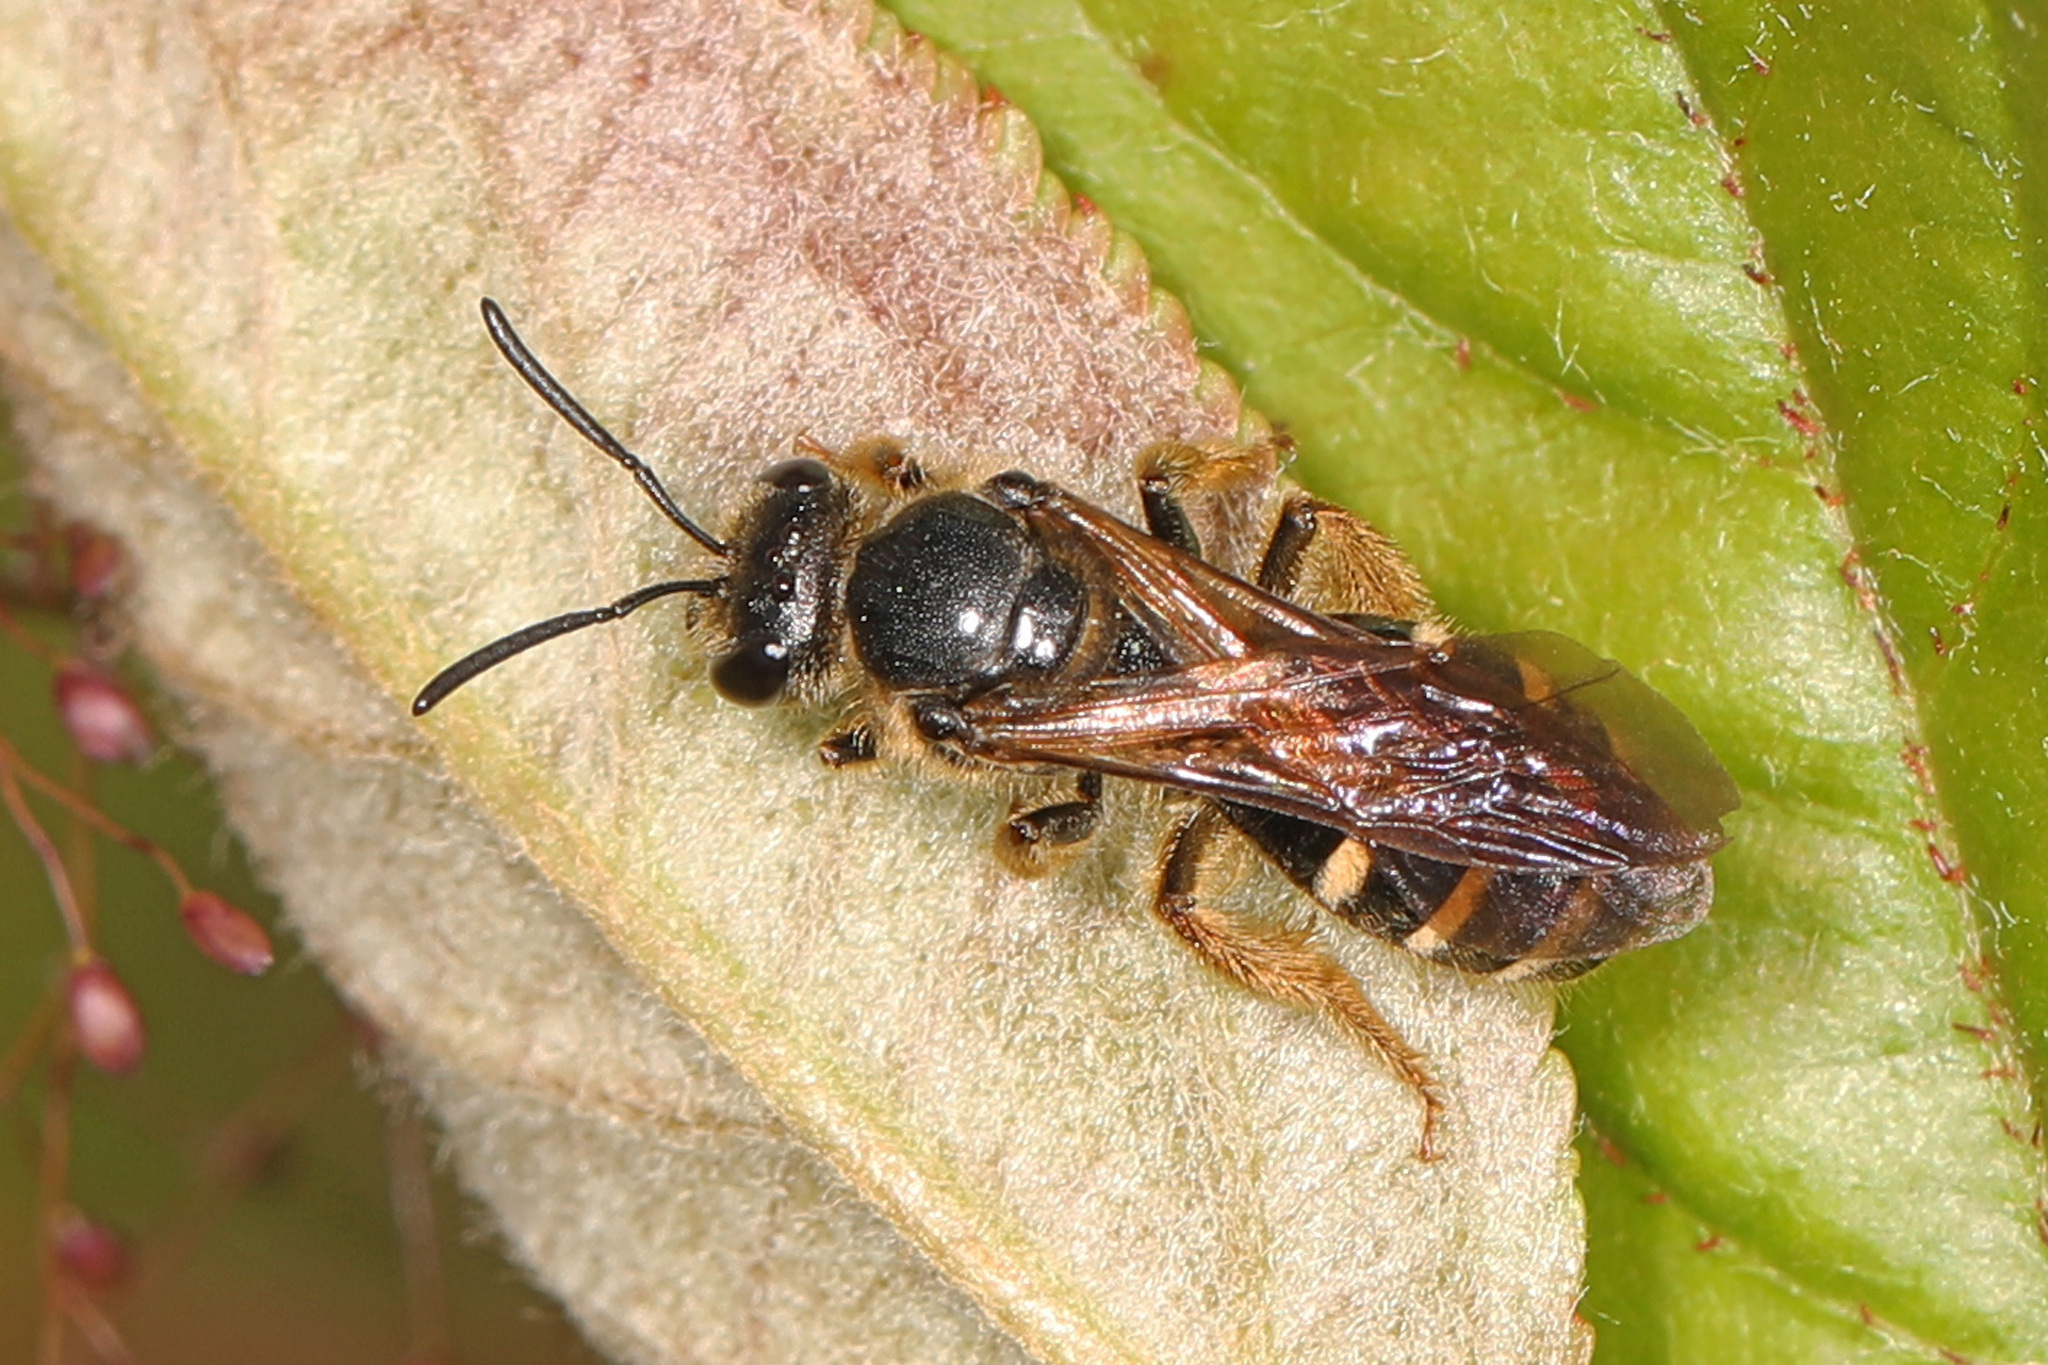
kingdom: Animalia
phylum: Arthropoda
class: Insecta
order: Hymenoptera
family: Halictidae
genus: Lasioglossum
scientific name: Lasioglossum fuscipenne
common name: Brown-winged sweat bee
